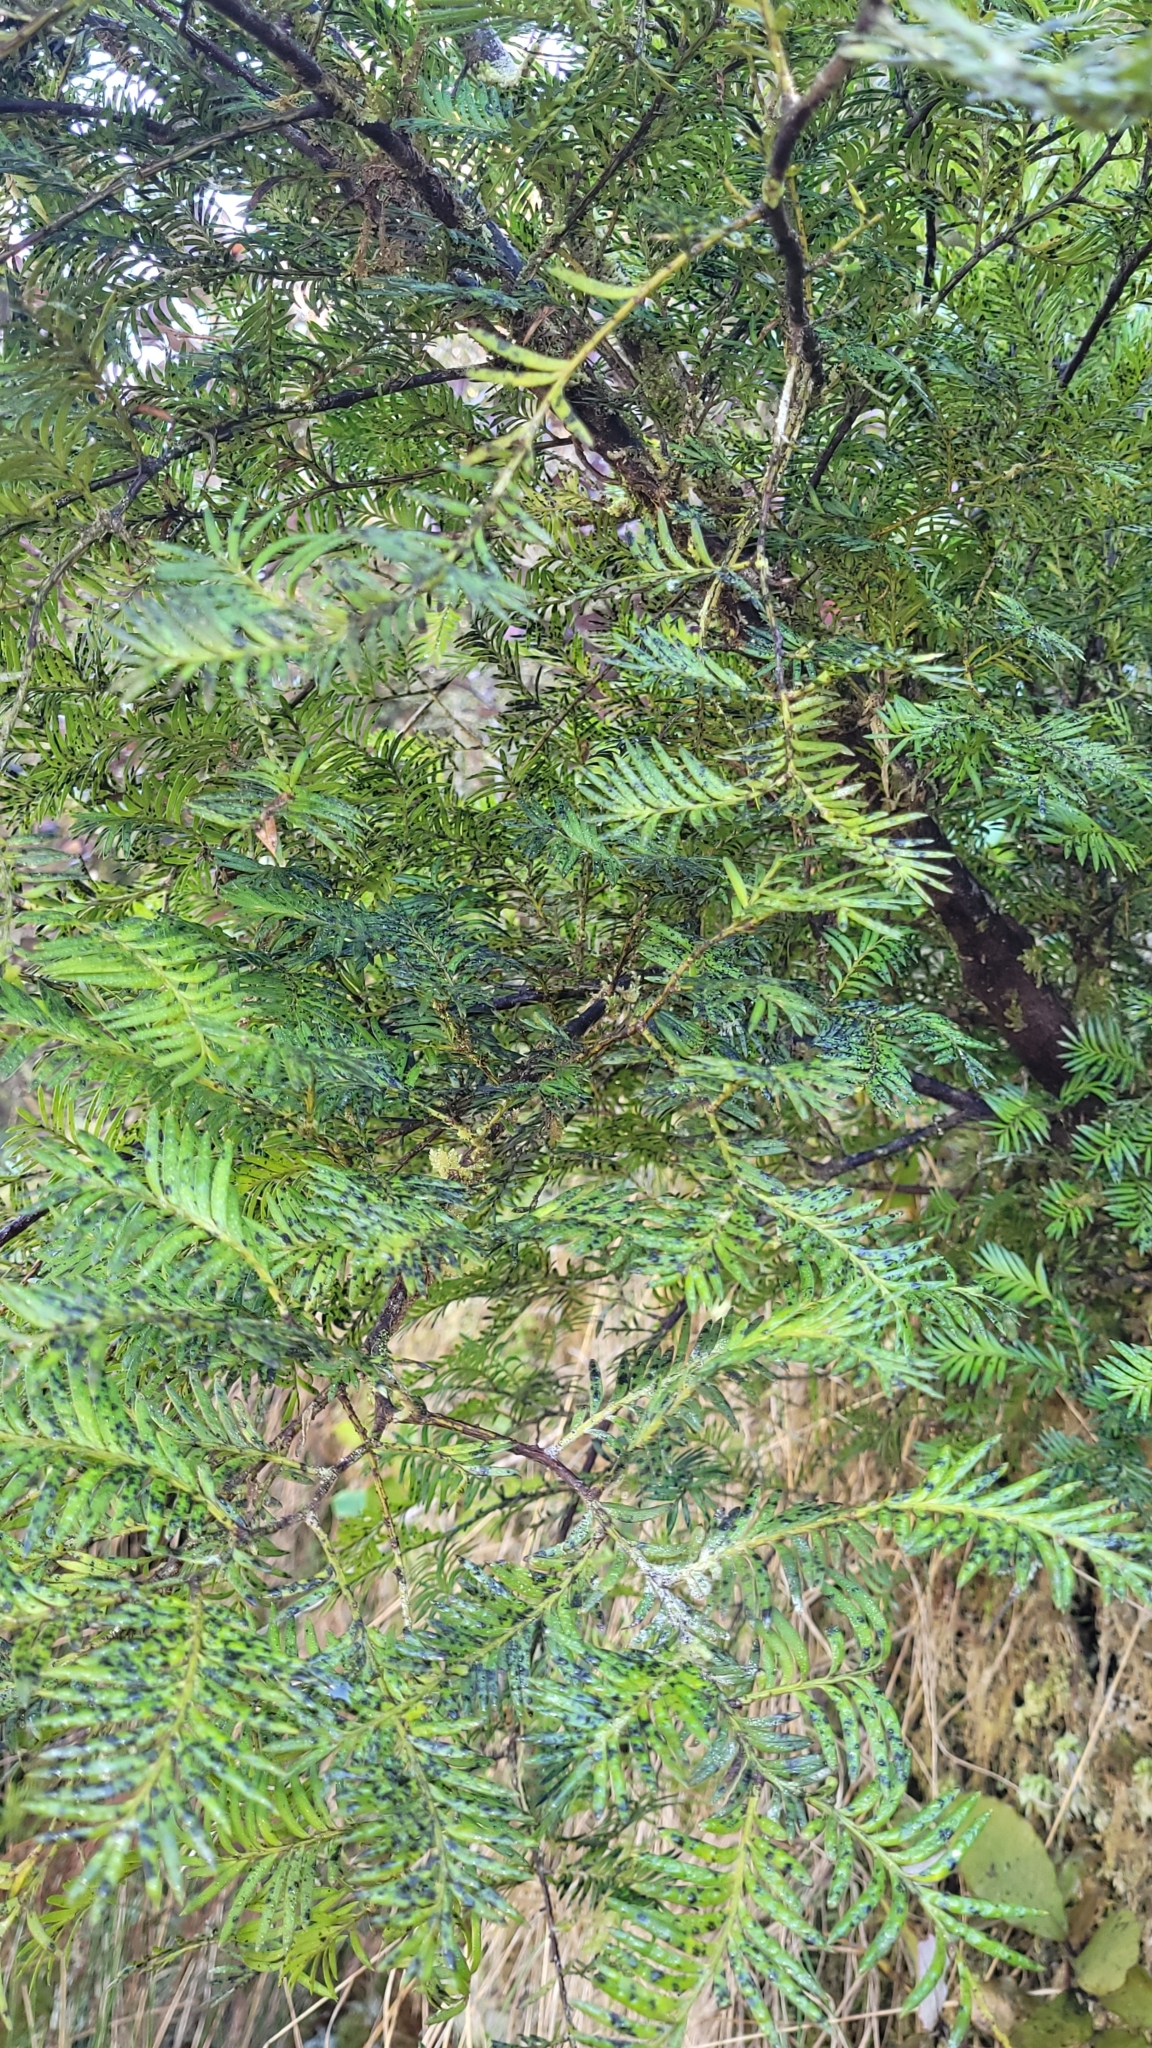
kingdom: Plantae
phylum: Tracheophyta
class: Pinopsida
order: Pinales
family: Podocarpaceae
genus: Prumnopitys
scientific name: Prumnopitys ferruginea
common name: Brown pine
